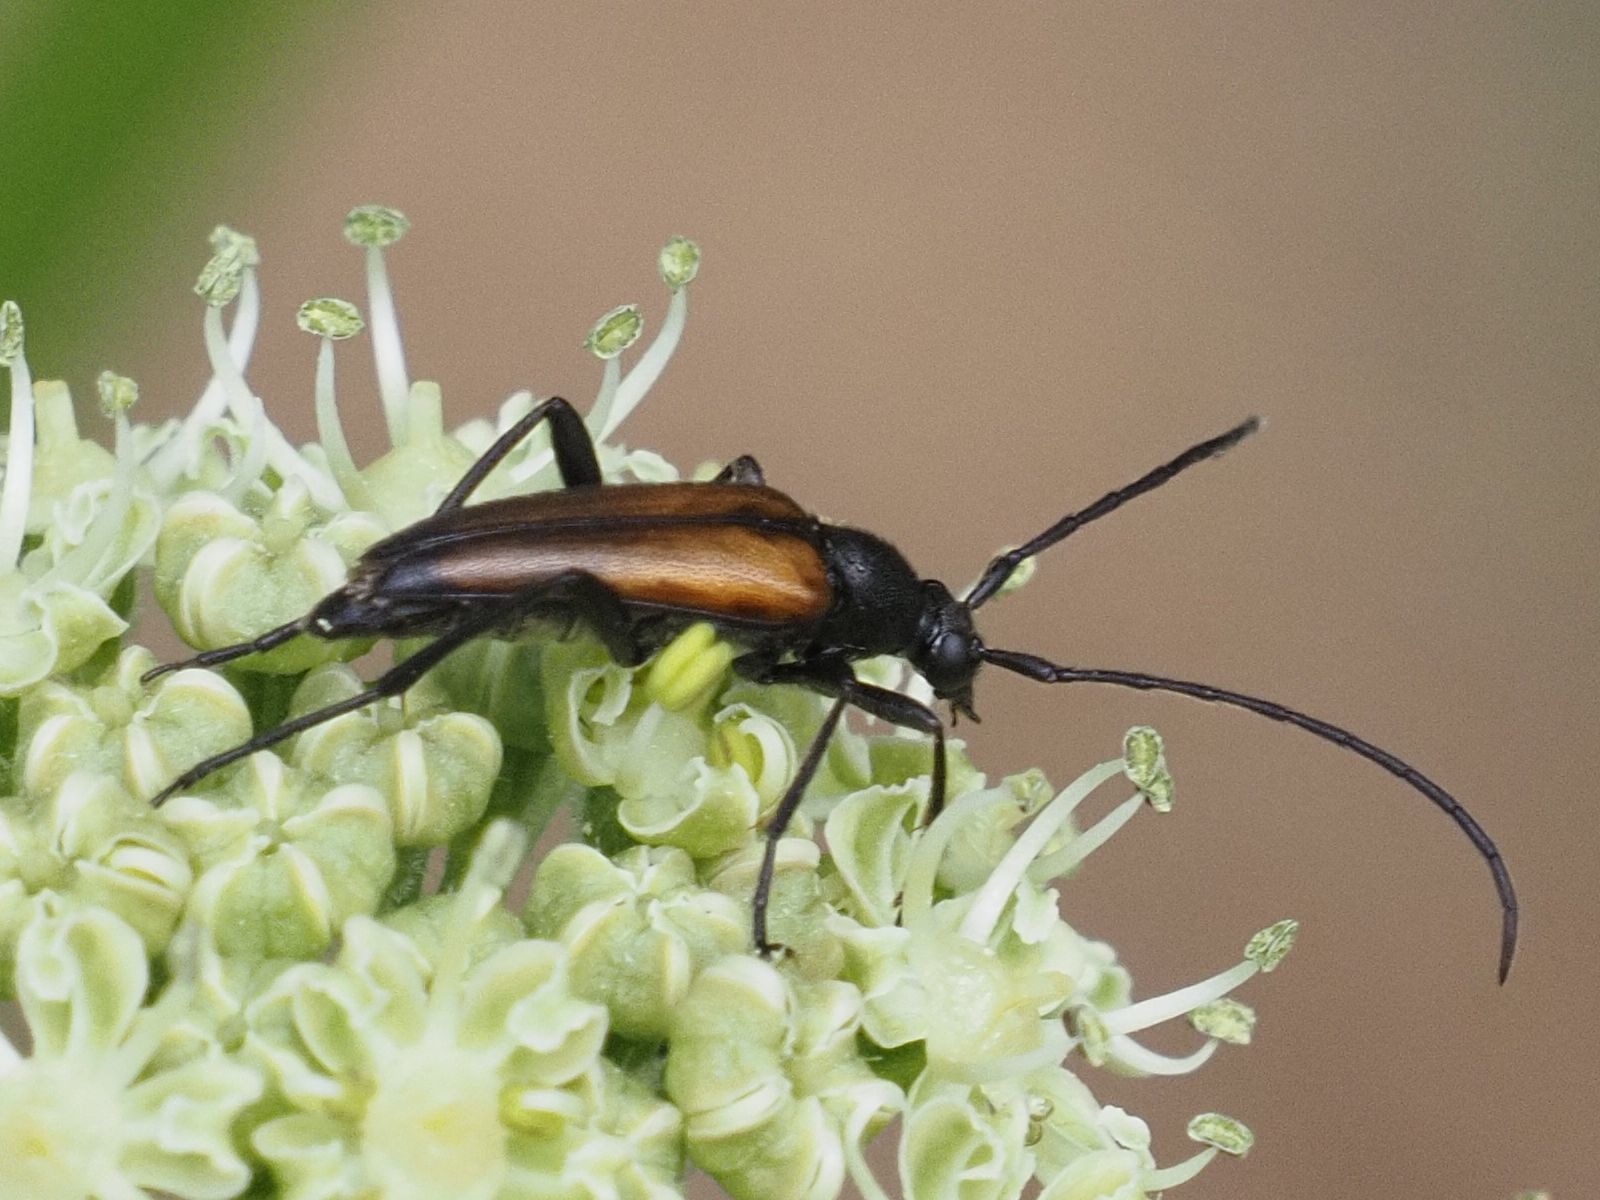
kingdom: Animalia
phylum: Arthropoda
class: Insecta
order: Coleoptera
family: Cerambycidae
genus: Stenurella
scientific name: Stenurella melanura
